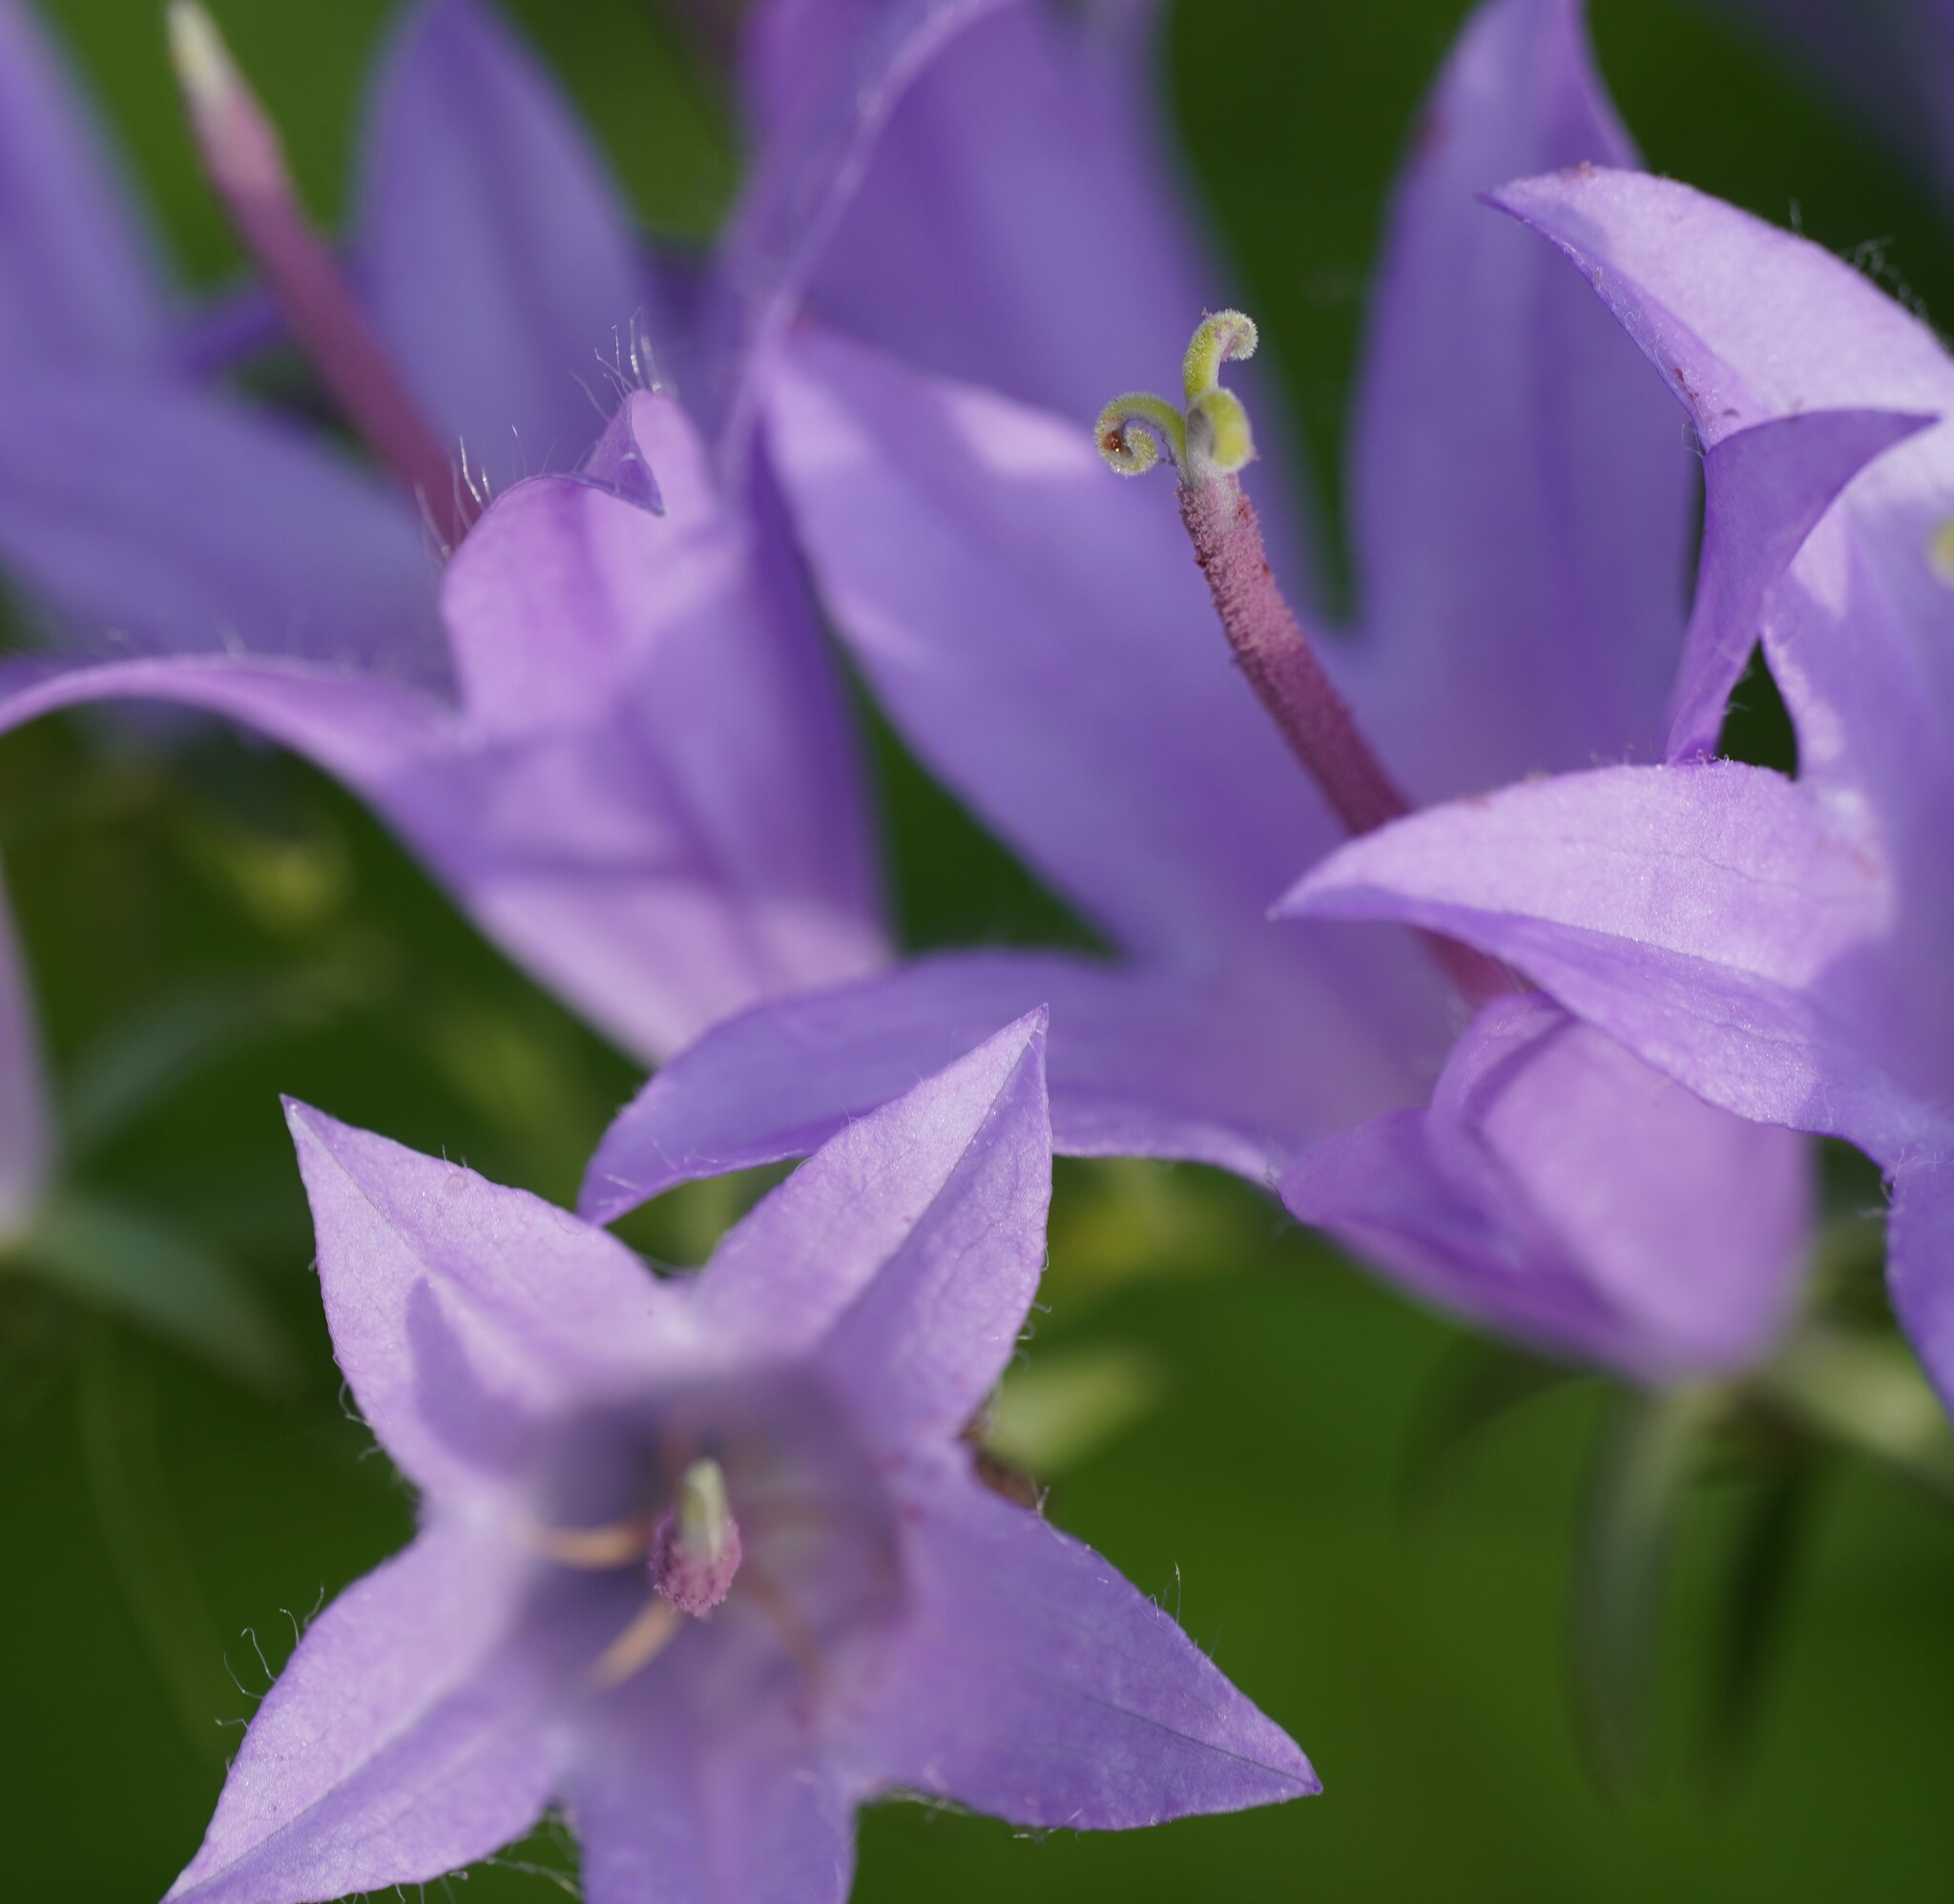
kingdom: Plantae
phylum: Tracheophyta
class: Magnoliopsida
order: Asterales
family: Campanulaceae
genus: Campanula
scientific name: Campanula rapunculoides
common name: Creeping bellflower
